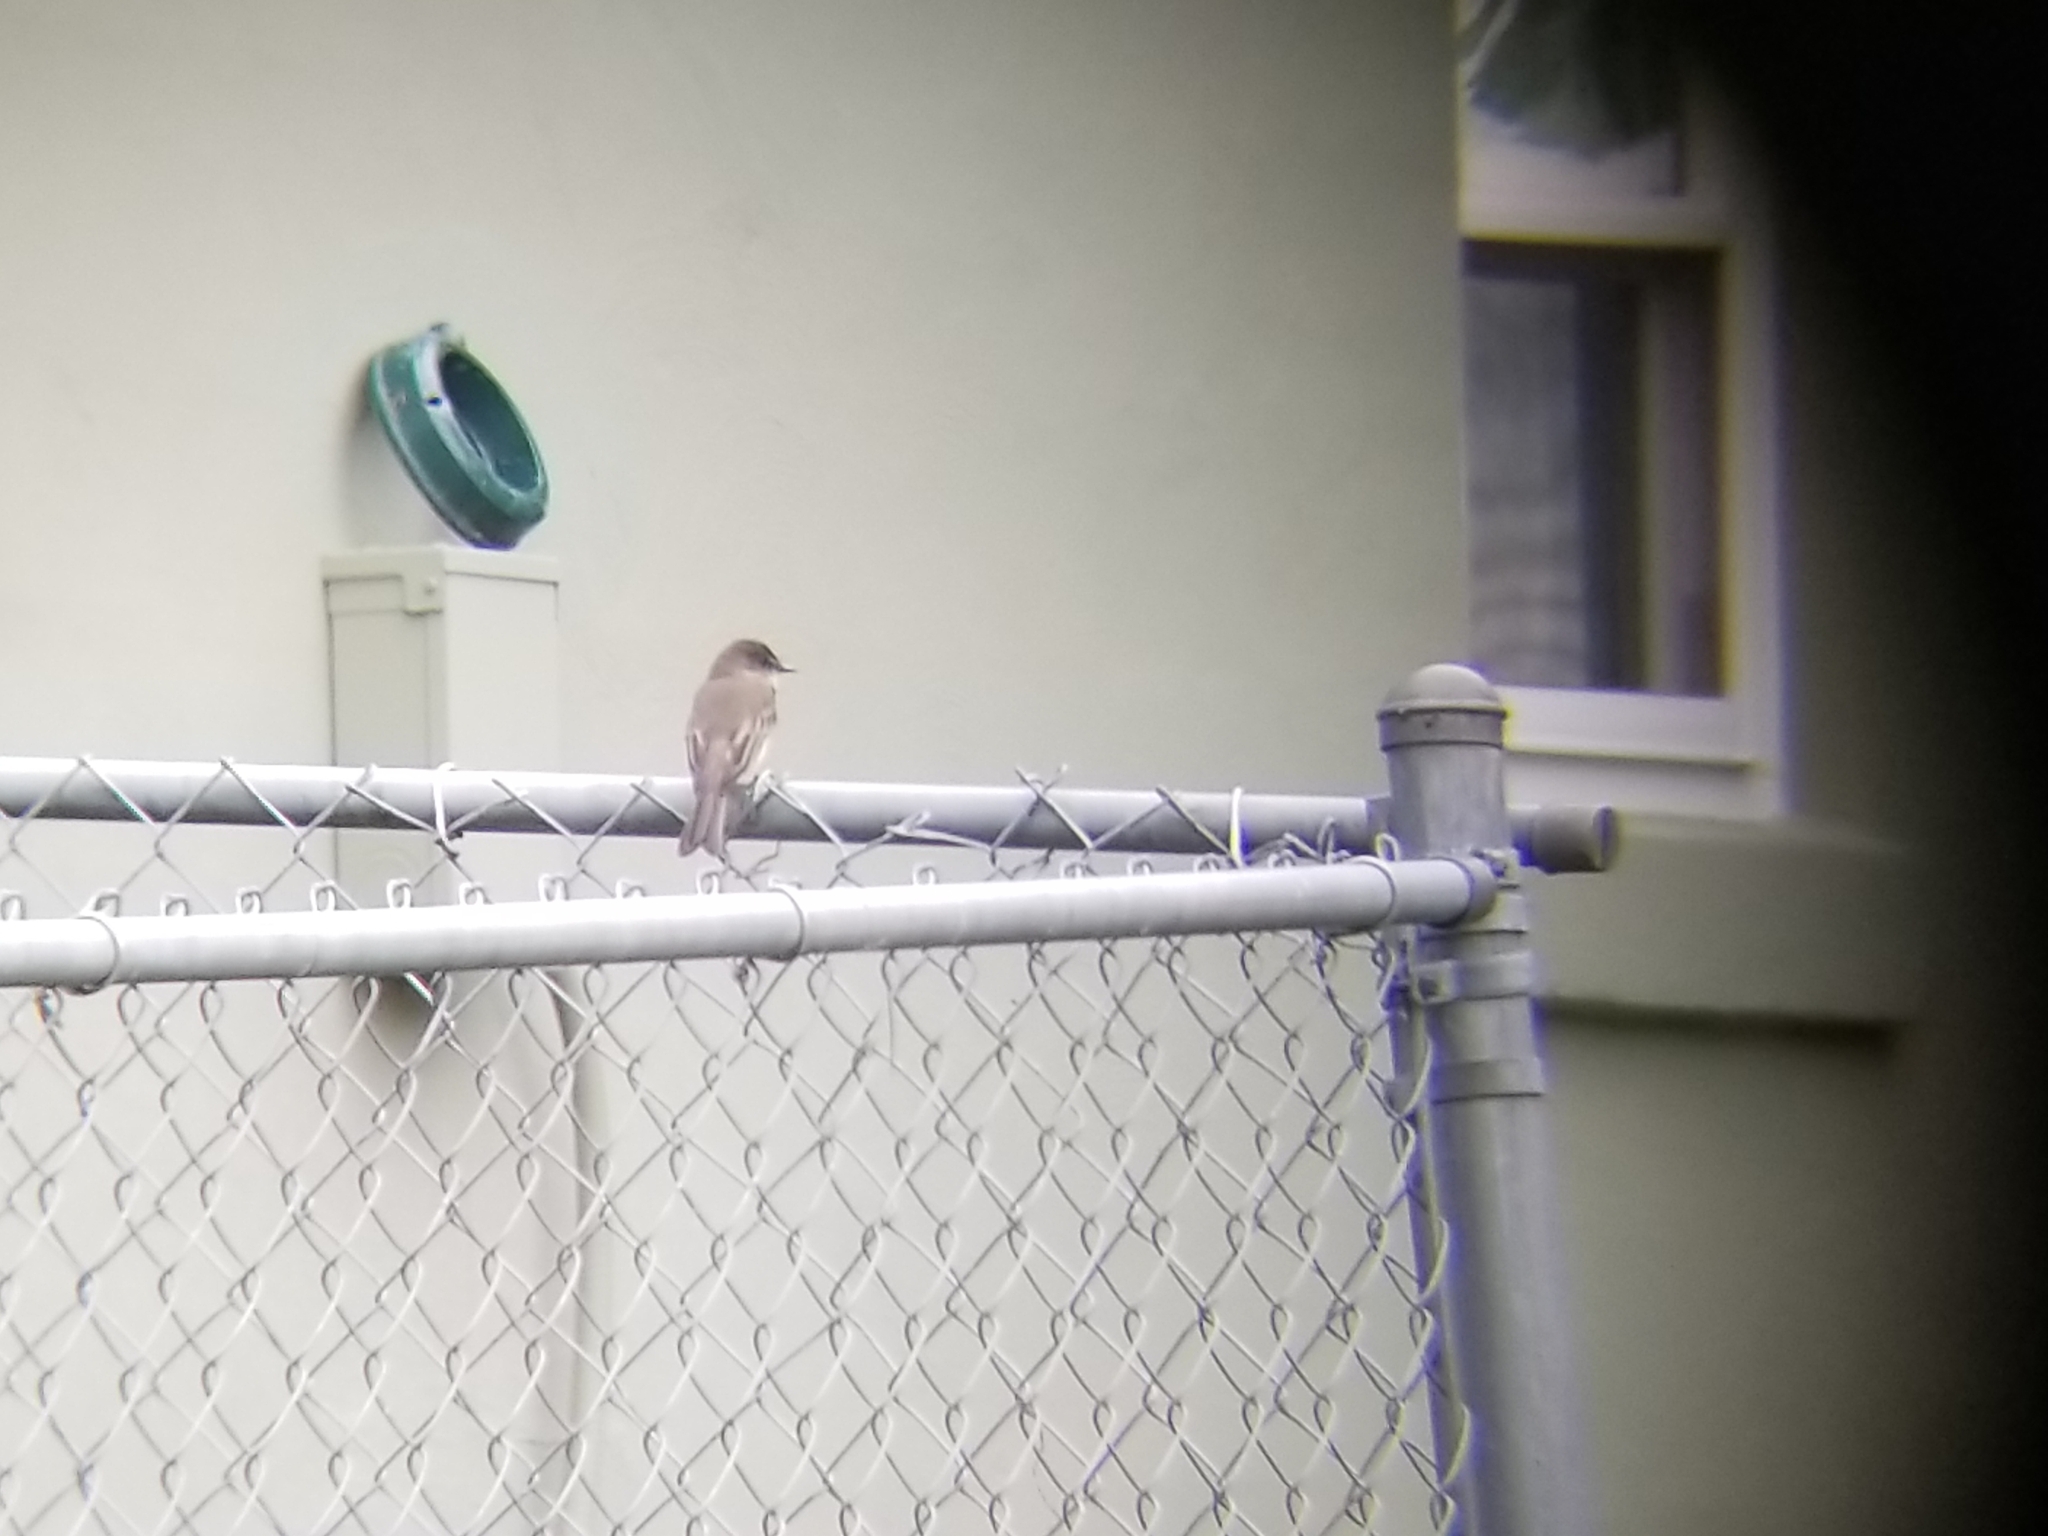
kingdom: Animalia
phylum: Chordata
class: Aves
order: Passeriformes
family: Tyrannidae
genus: Sayornis
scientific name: Sayornis phoebe
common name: Eastern phoebe
